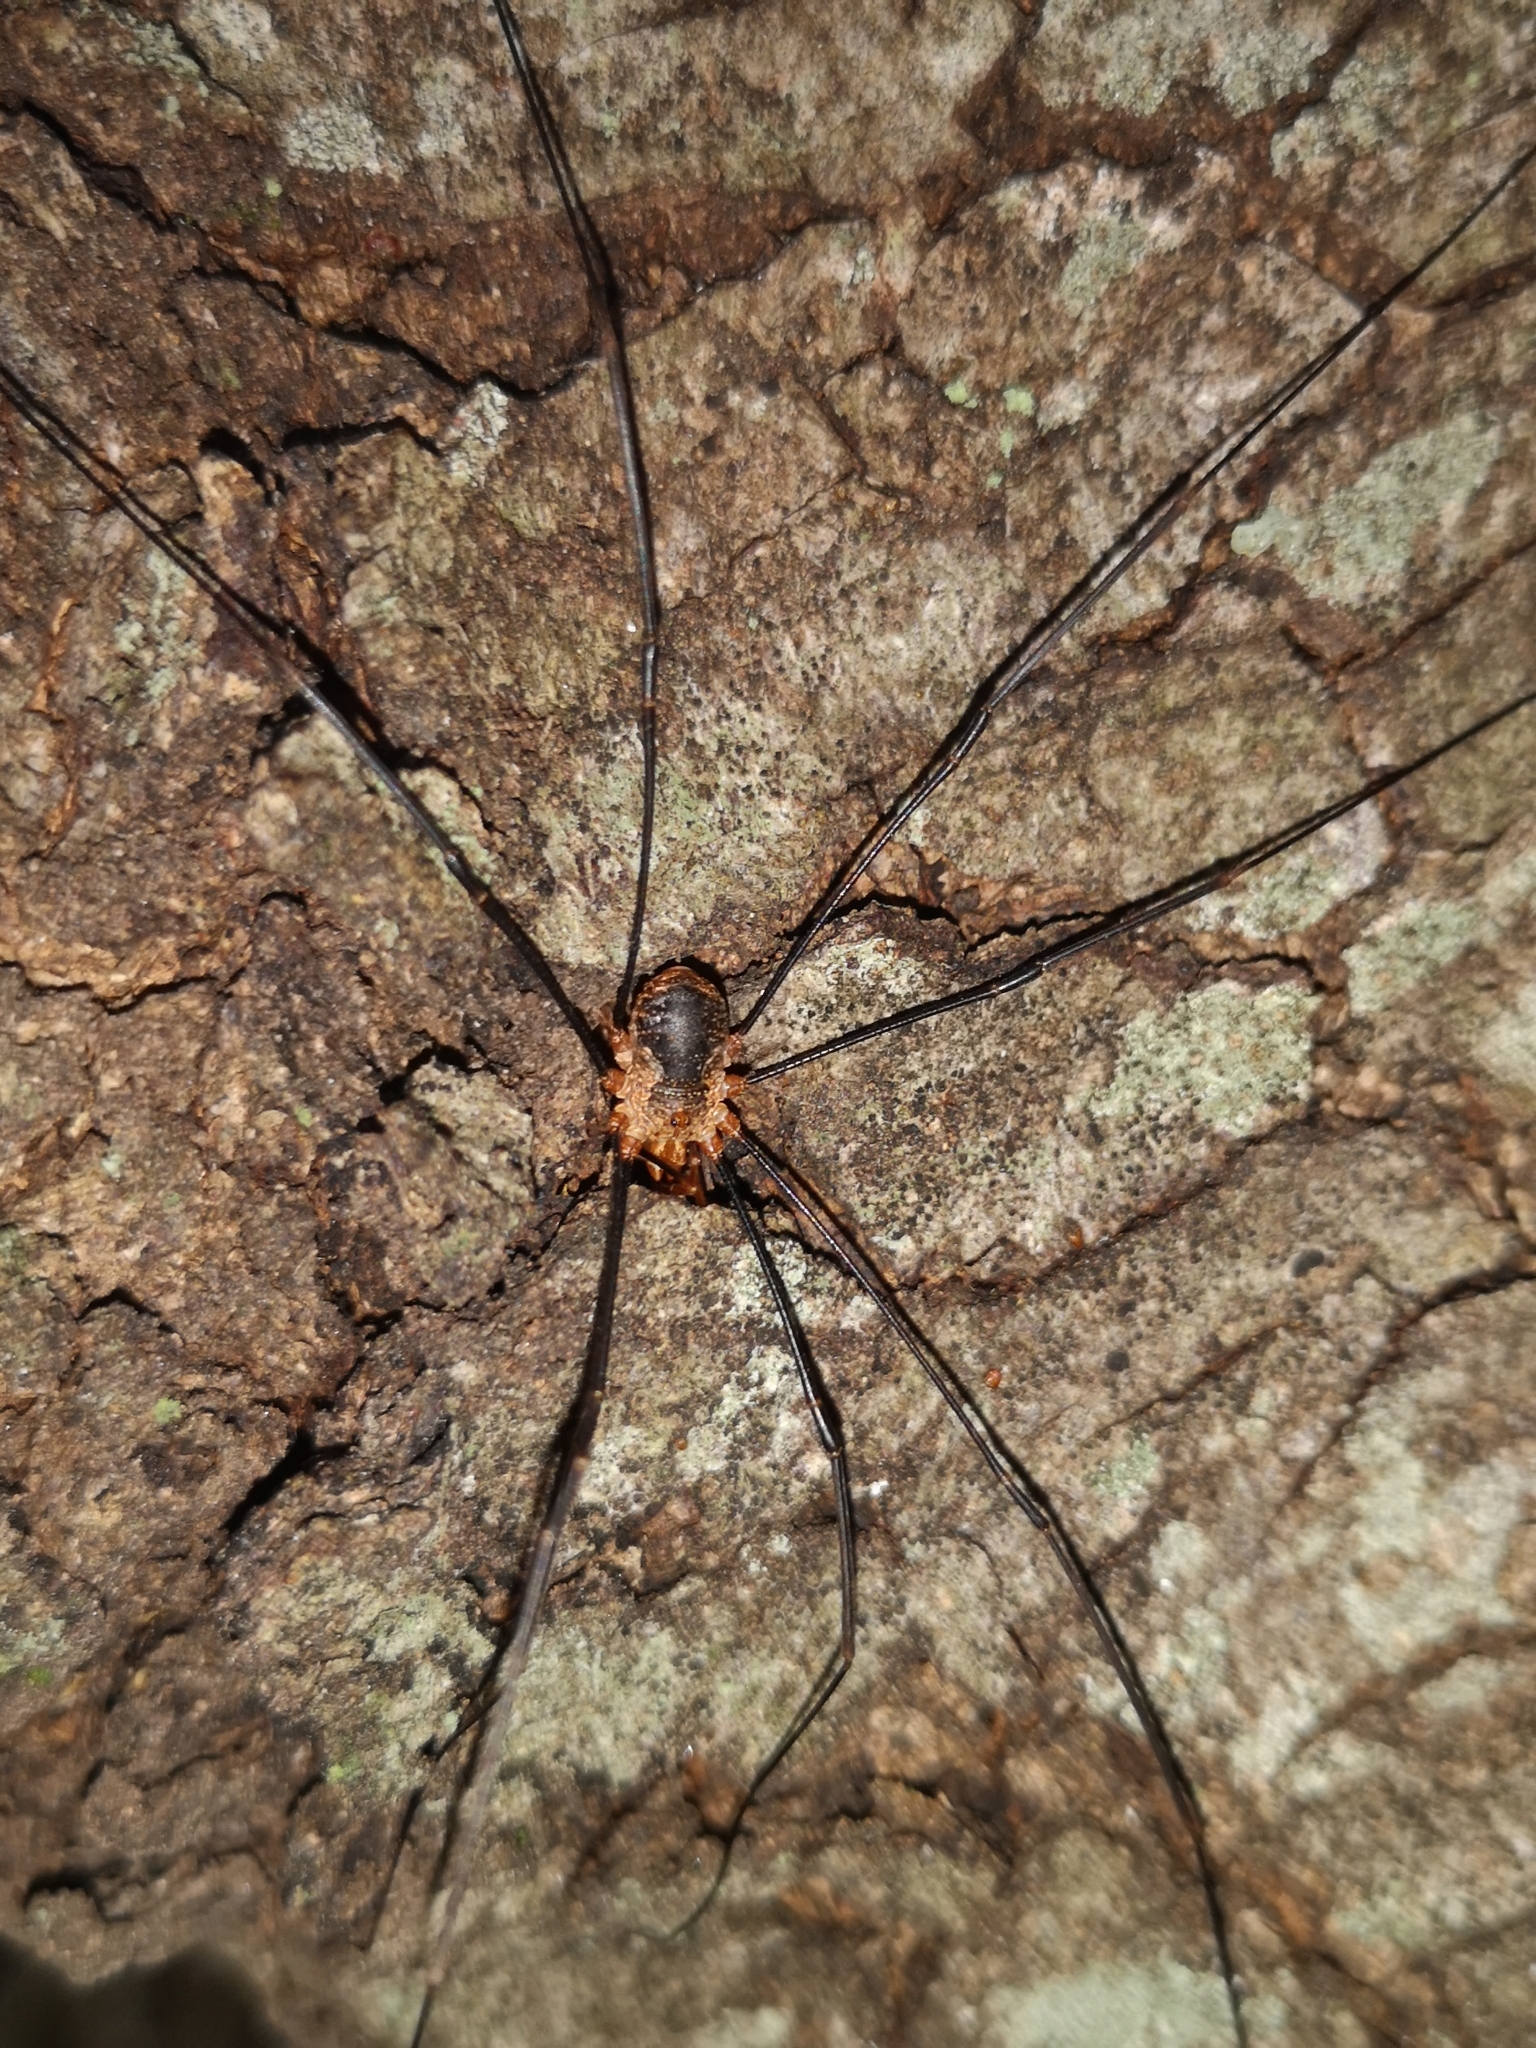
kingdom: Animalia
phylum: Arthropoda
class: Arachnida
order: Opiliones
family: Phalangiidae
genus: Phalangium
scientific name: Phalangium opilio
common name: Daddy longleg
